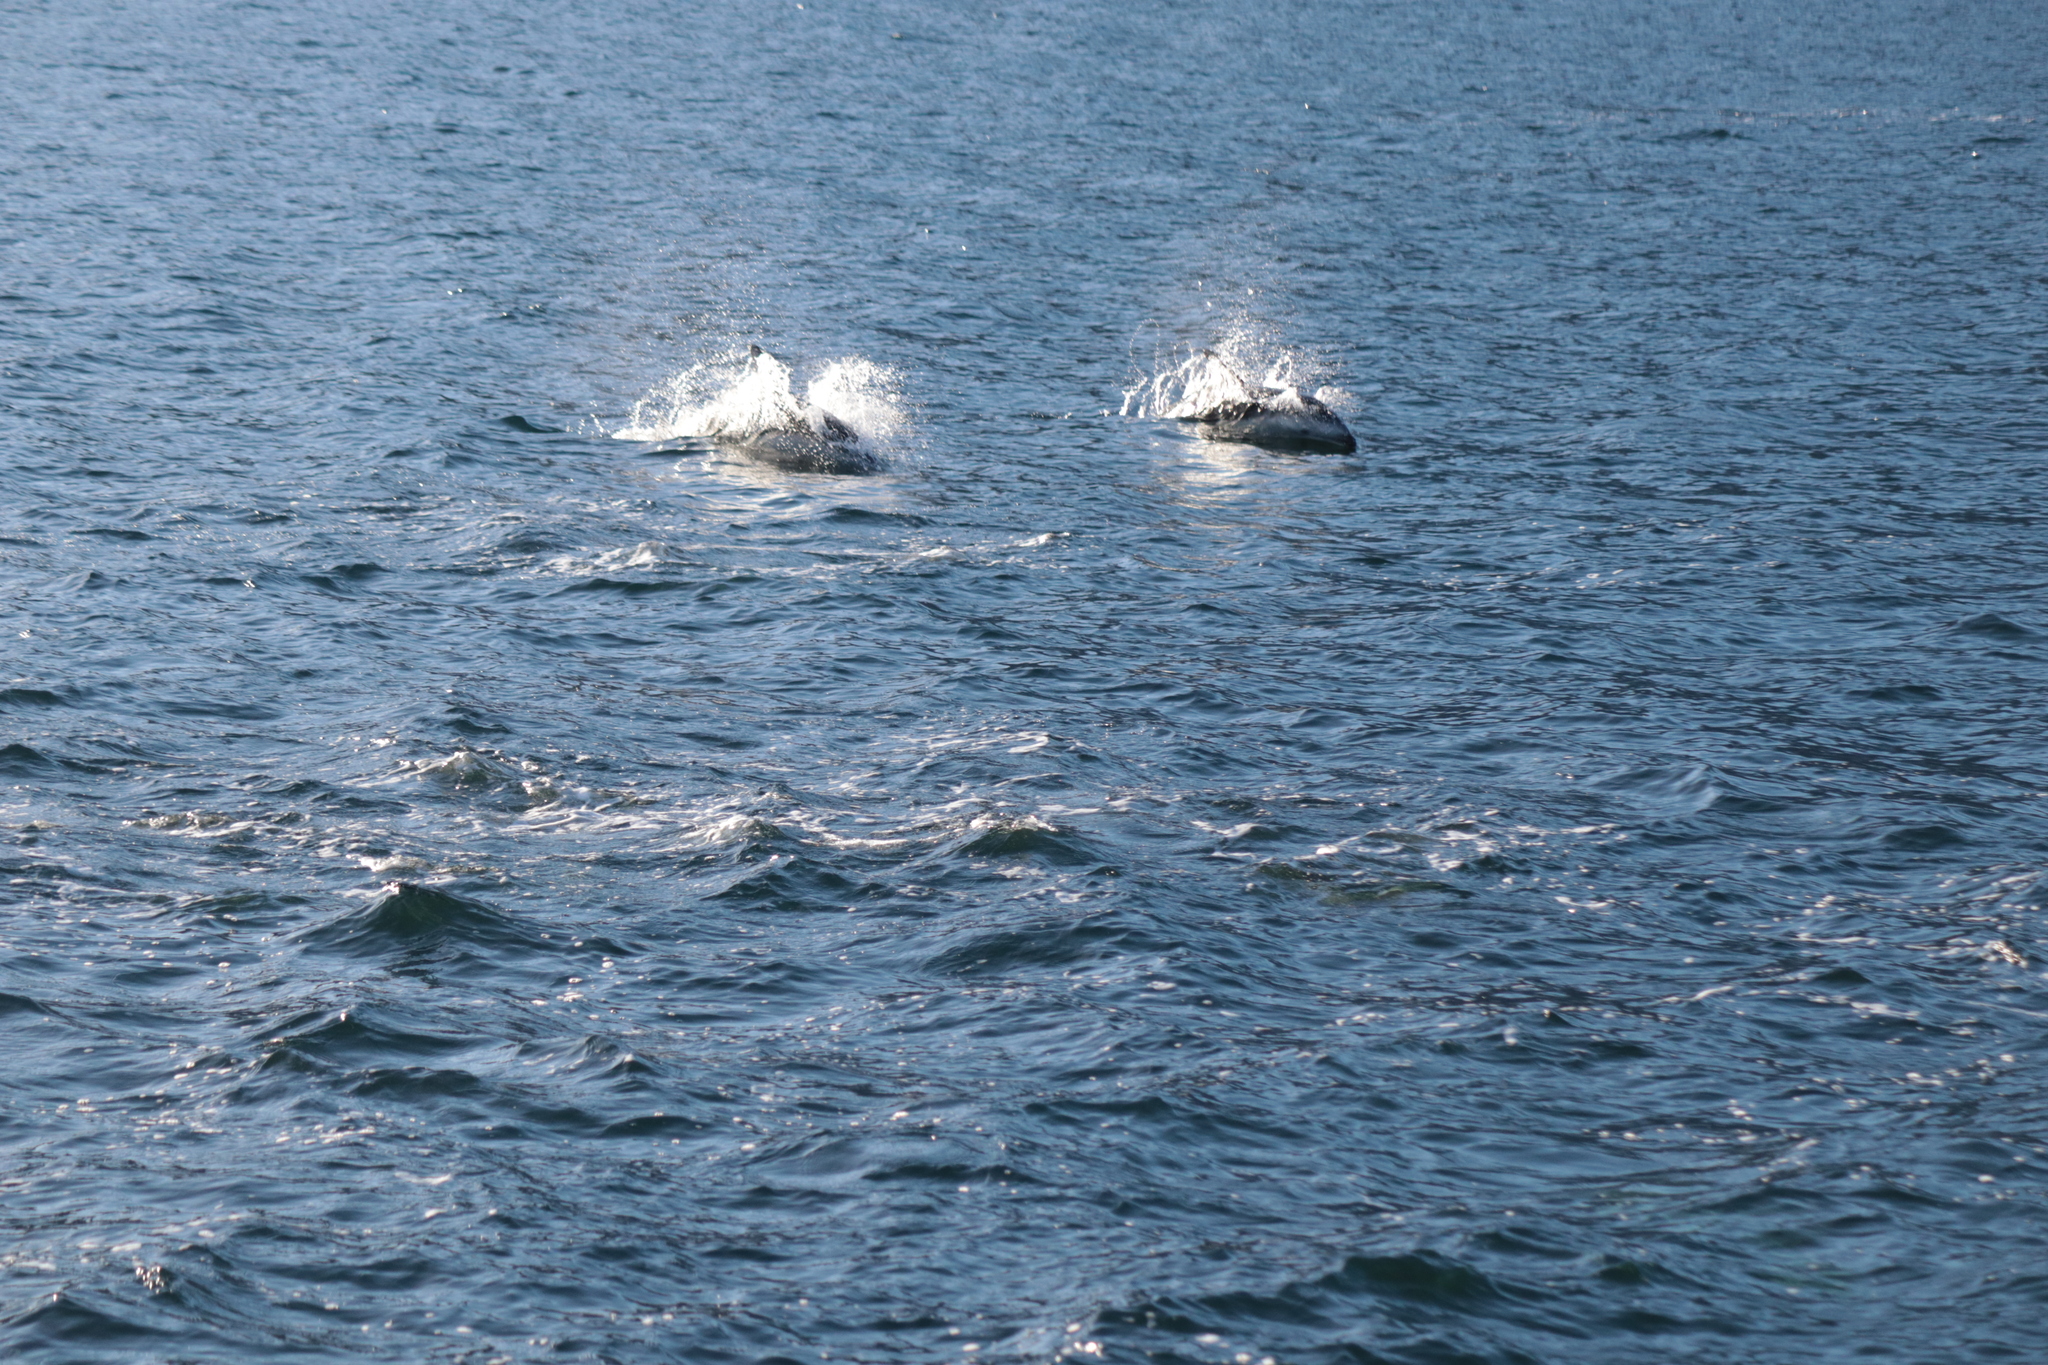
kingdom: Animalia
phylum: Chordata
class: Mammalia
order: Cetacea
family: Delphinidae
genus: Lagenorhynchus
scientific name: Lagenorhynchus obscurus
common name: Dusky dolphin
